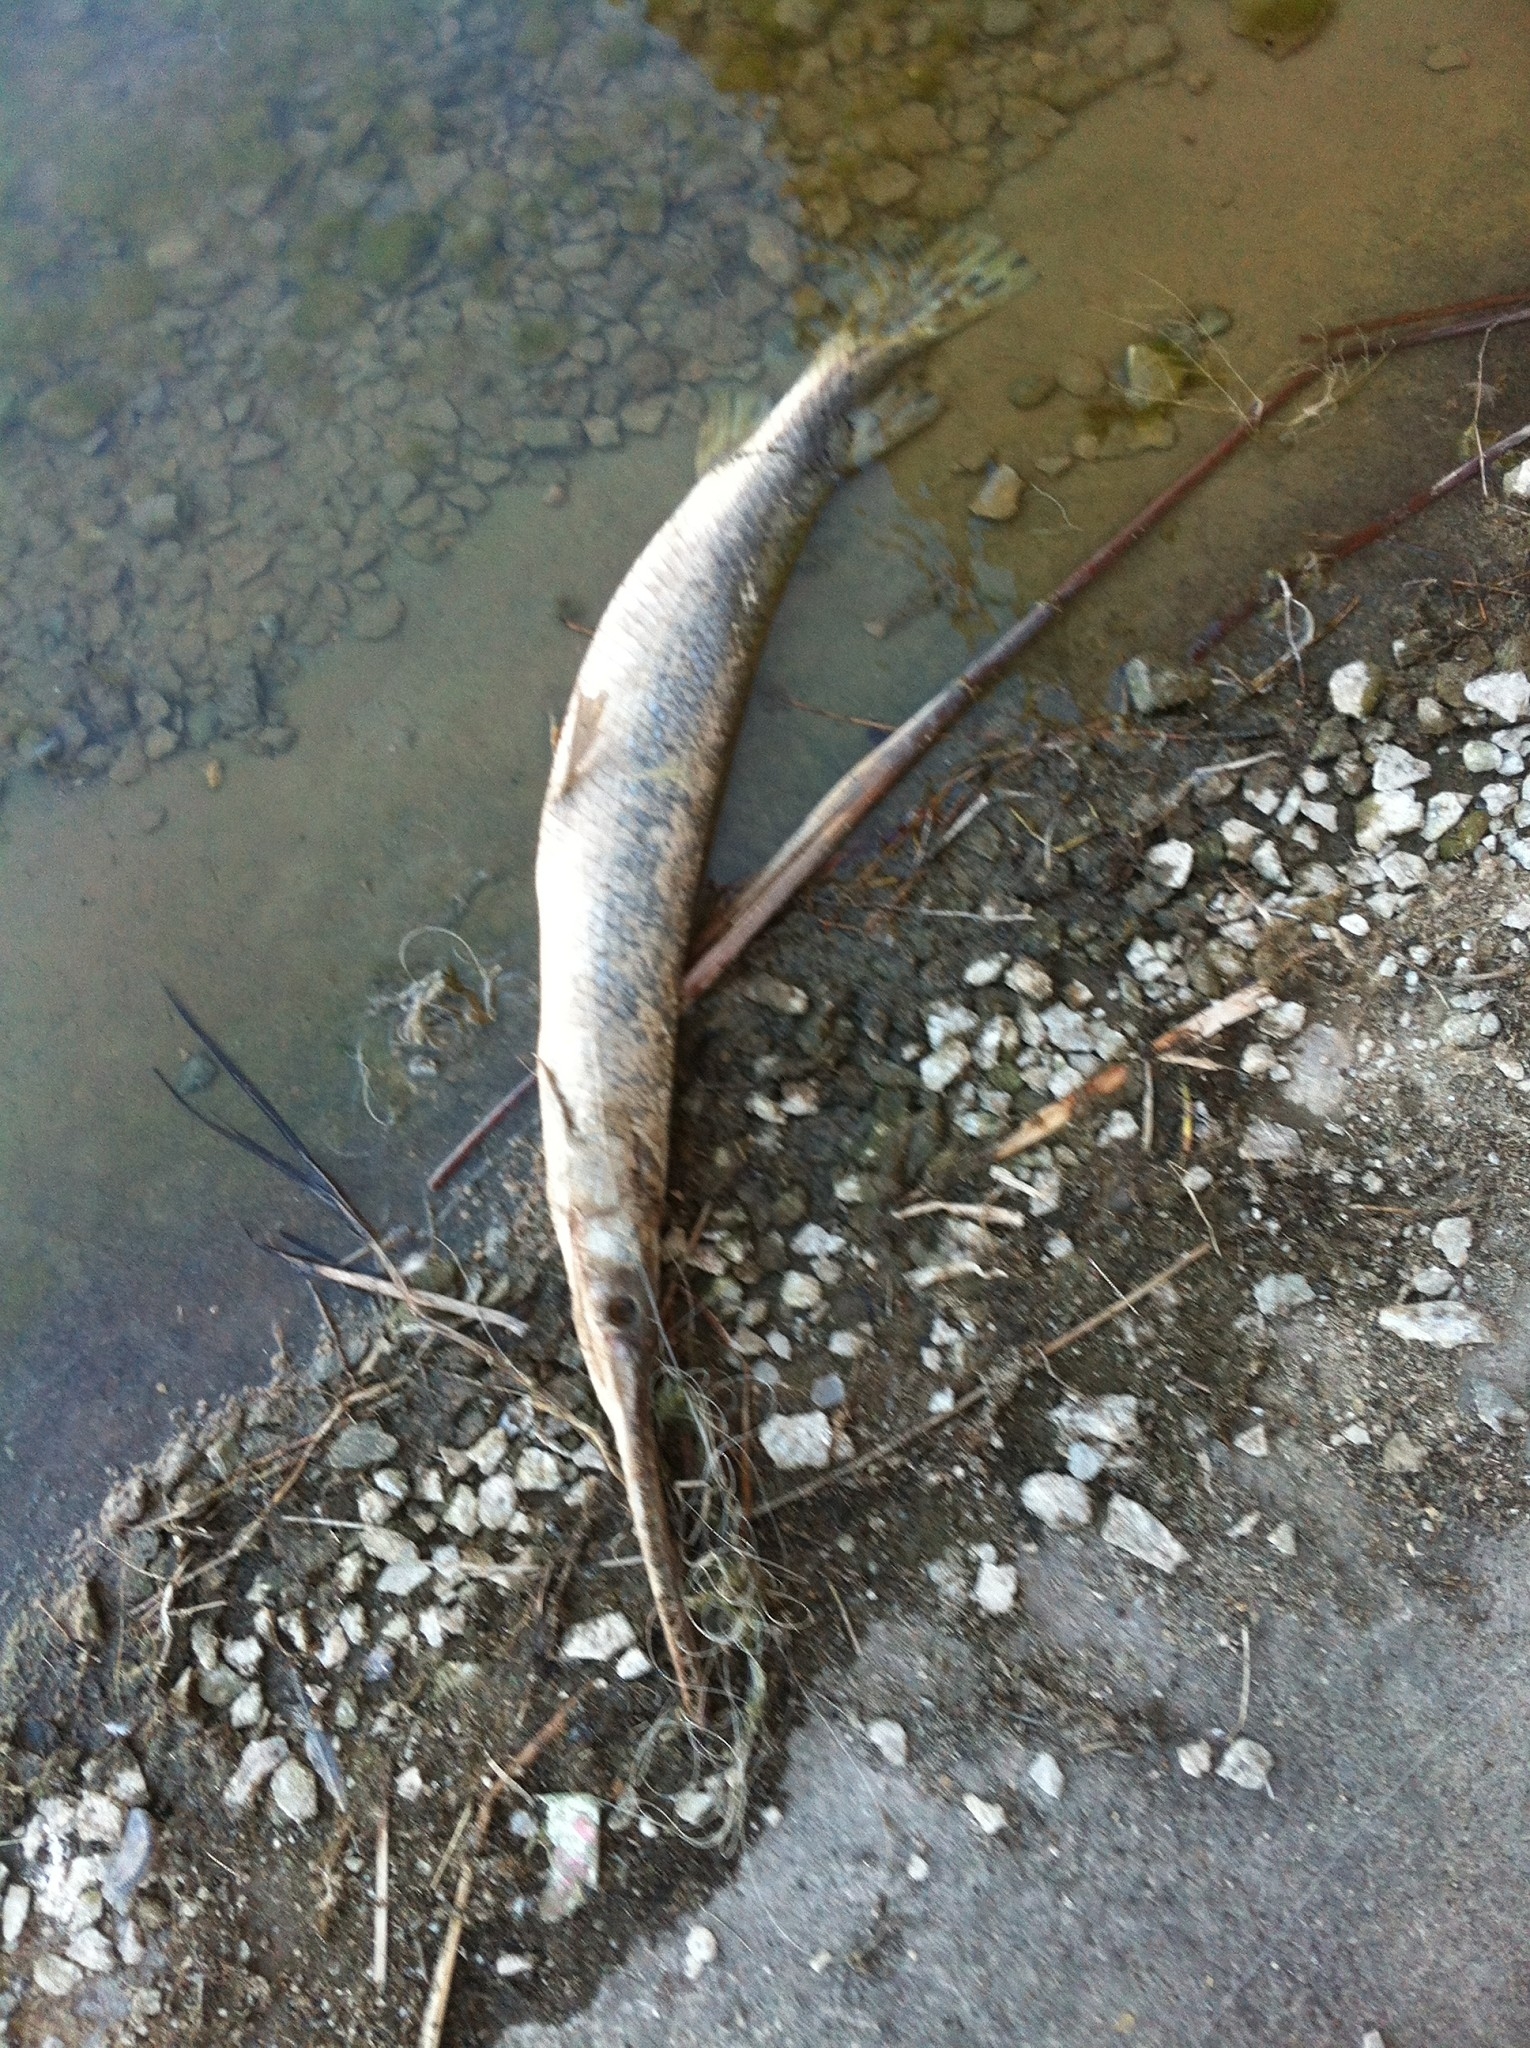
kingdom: Animalia
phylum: Chordata
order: Lepisosteiformes
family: Lepisosteidae
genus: Lepisosteus
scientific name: Lepisosteus osseus
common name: Longnose gar
